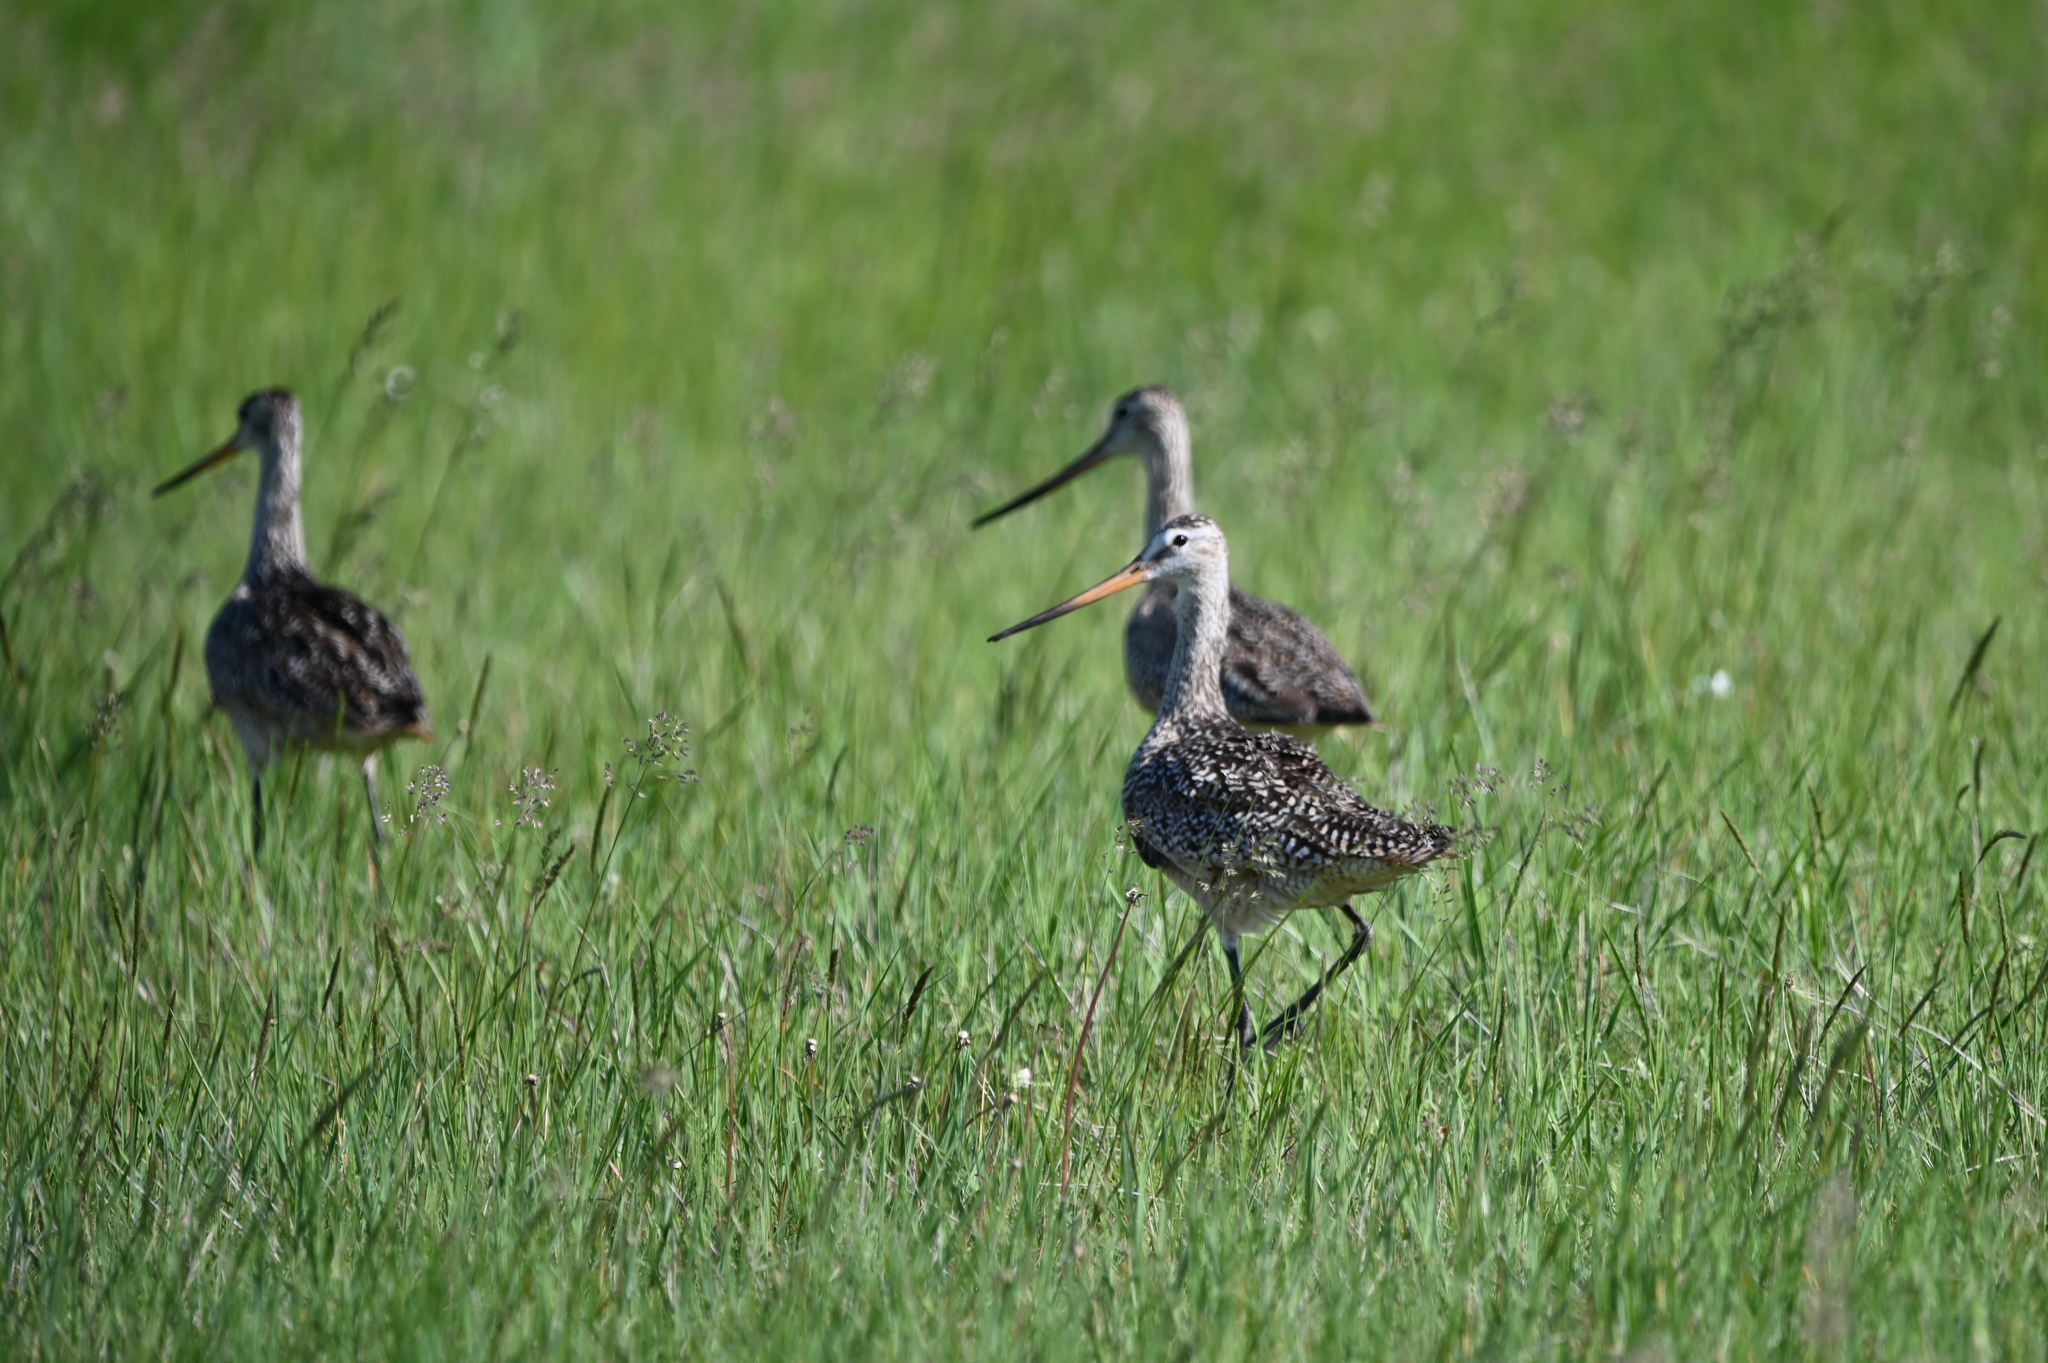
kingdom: Animalia
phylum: Chordata
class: Aves
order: Charadriiformes
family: Scolopacidae
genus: Limosa
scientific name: Limosa fedoa
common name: Marbled godwit
